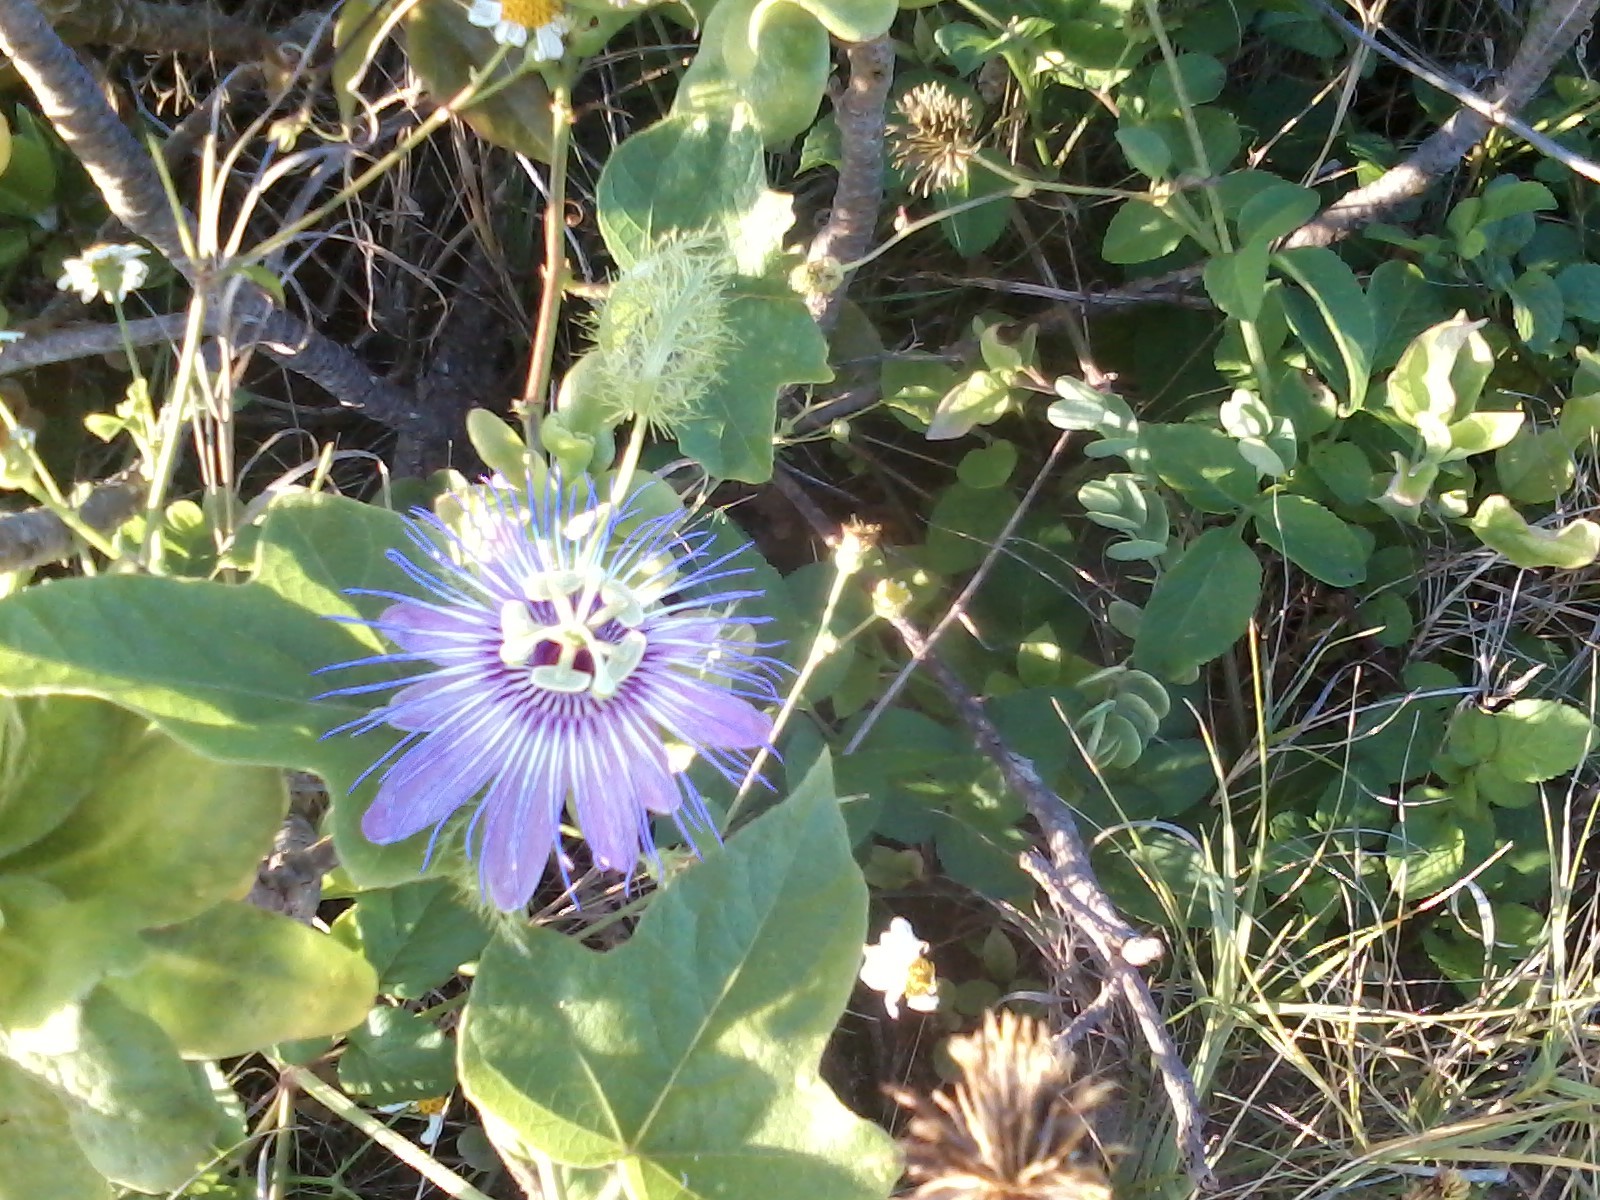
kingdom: Plantae
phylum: Tracheophyta
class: Magnoliopsida
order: Malpighiales
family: Passifloraceae
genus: Passiflora
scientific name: Passiflora foetida
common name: Fetid passionflower
